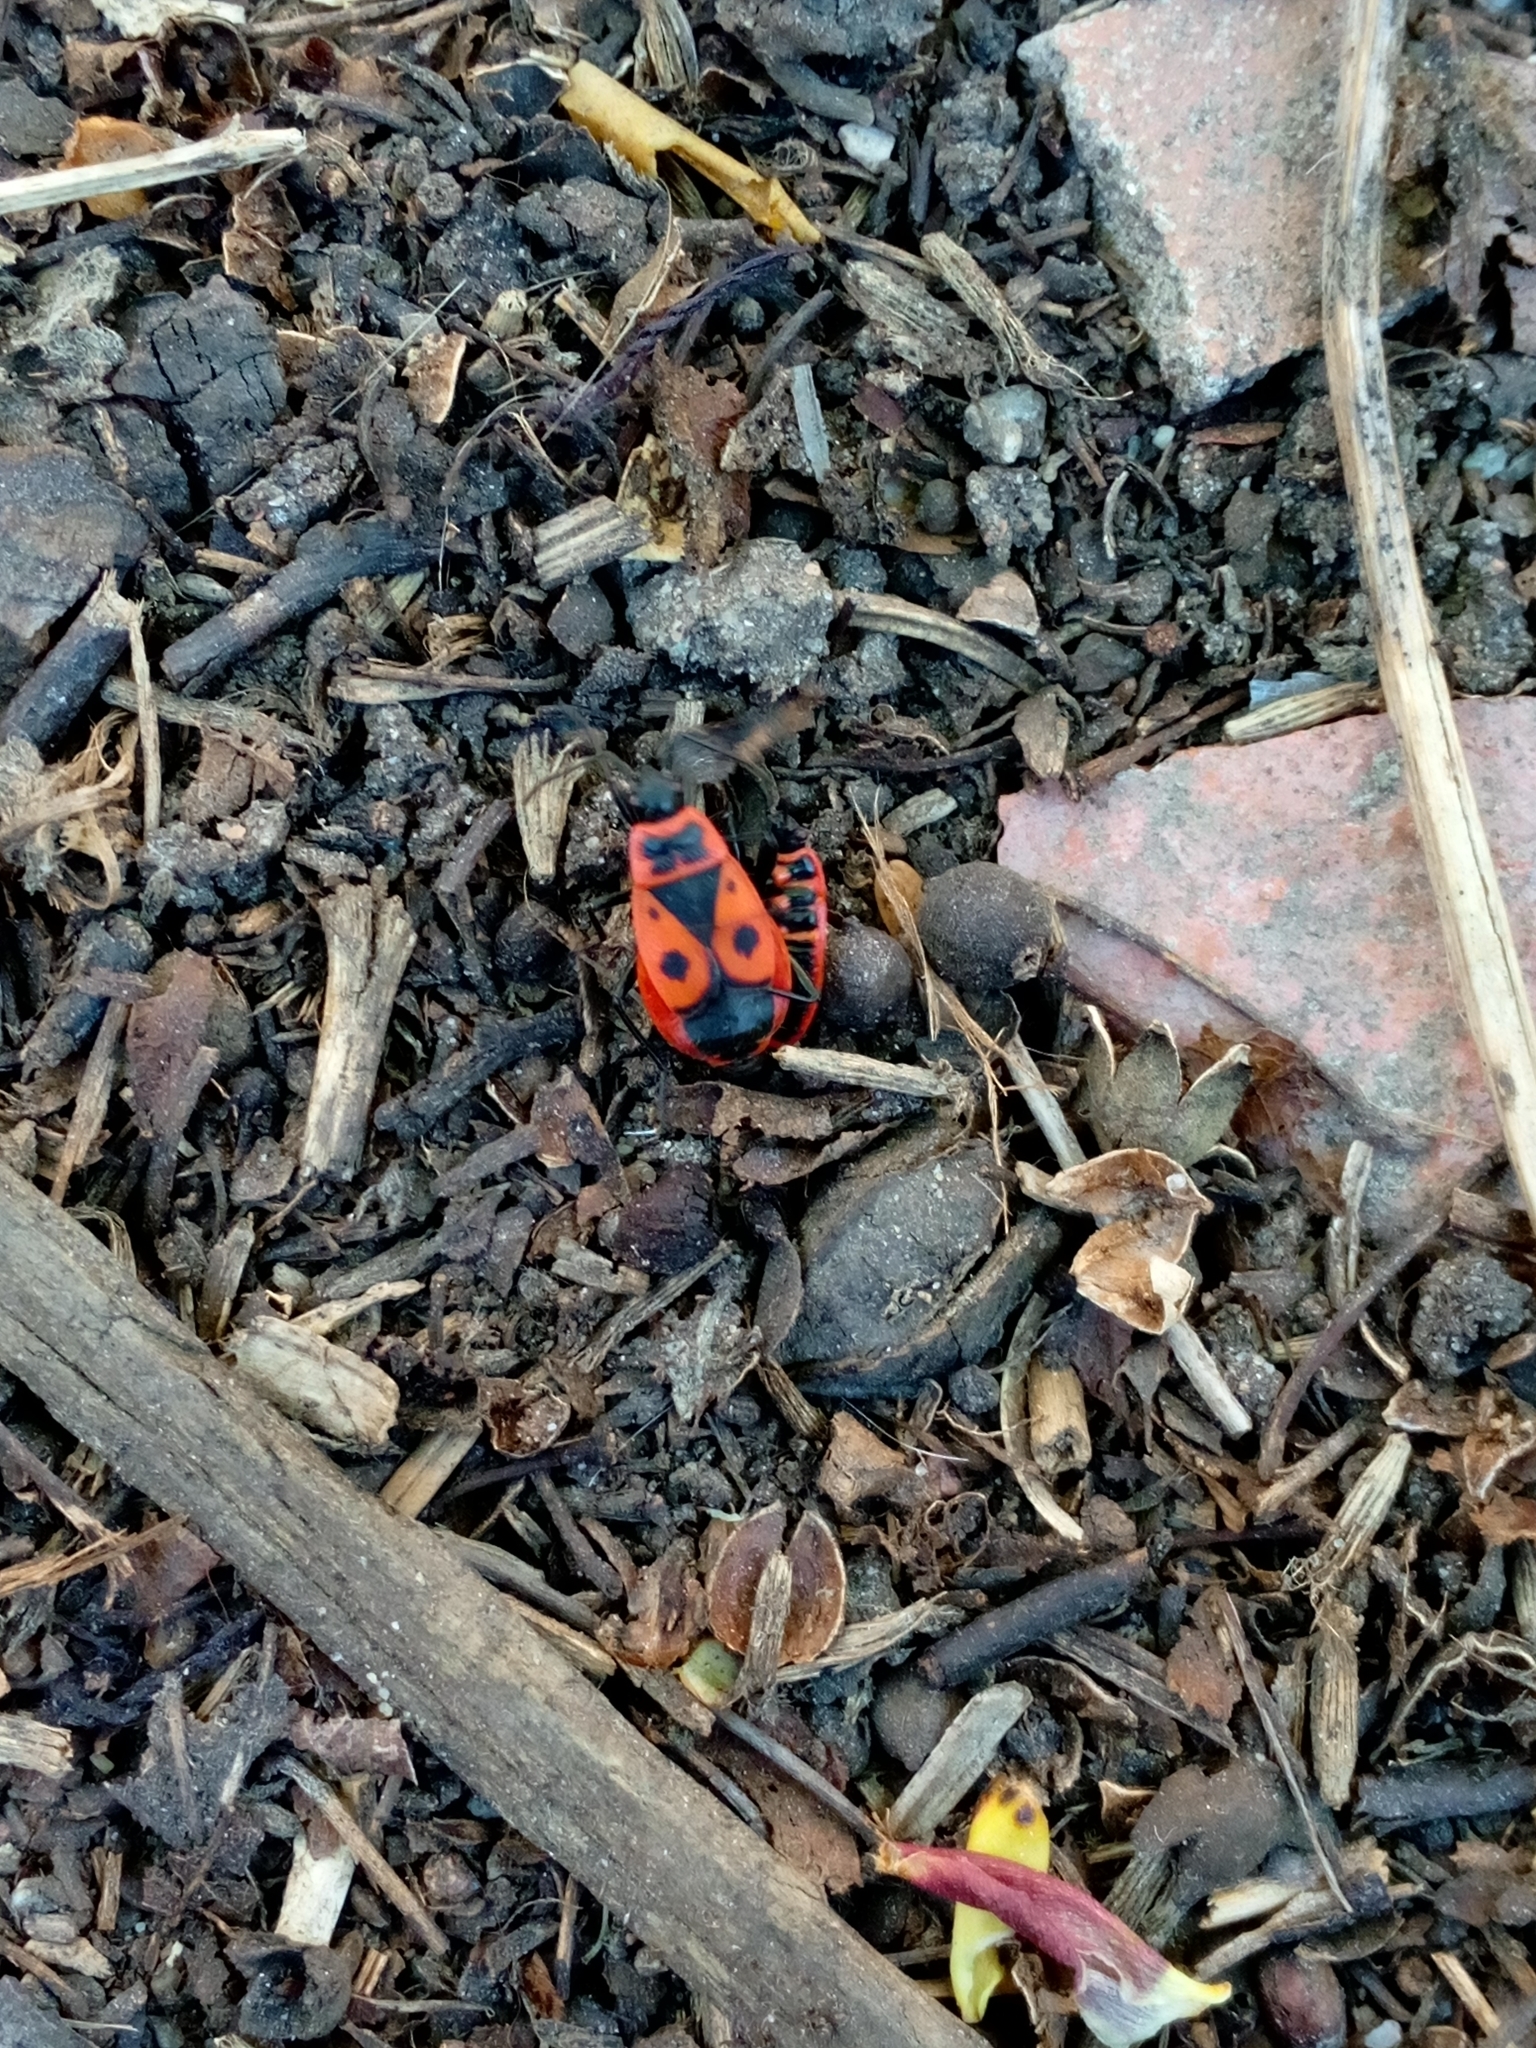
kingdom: Animalia
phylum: Arthropoda
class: Insecta
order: Hemiptera
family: Pyrrhocoridae
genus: Pyrrhocoris
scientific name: Pyrrhocoris apterus
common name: Firebug
